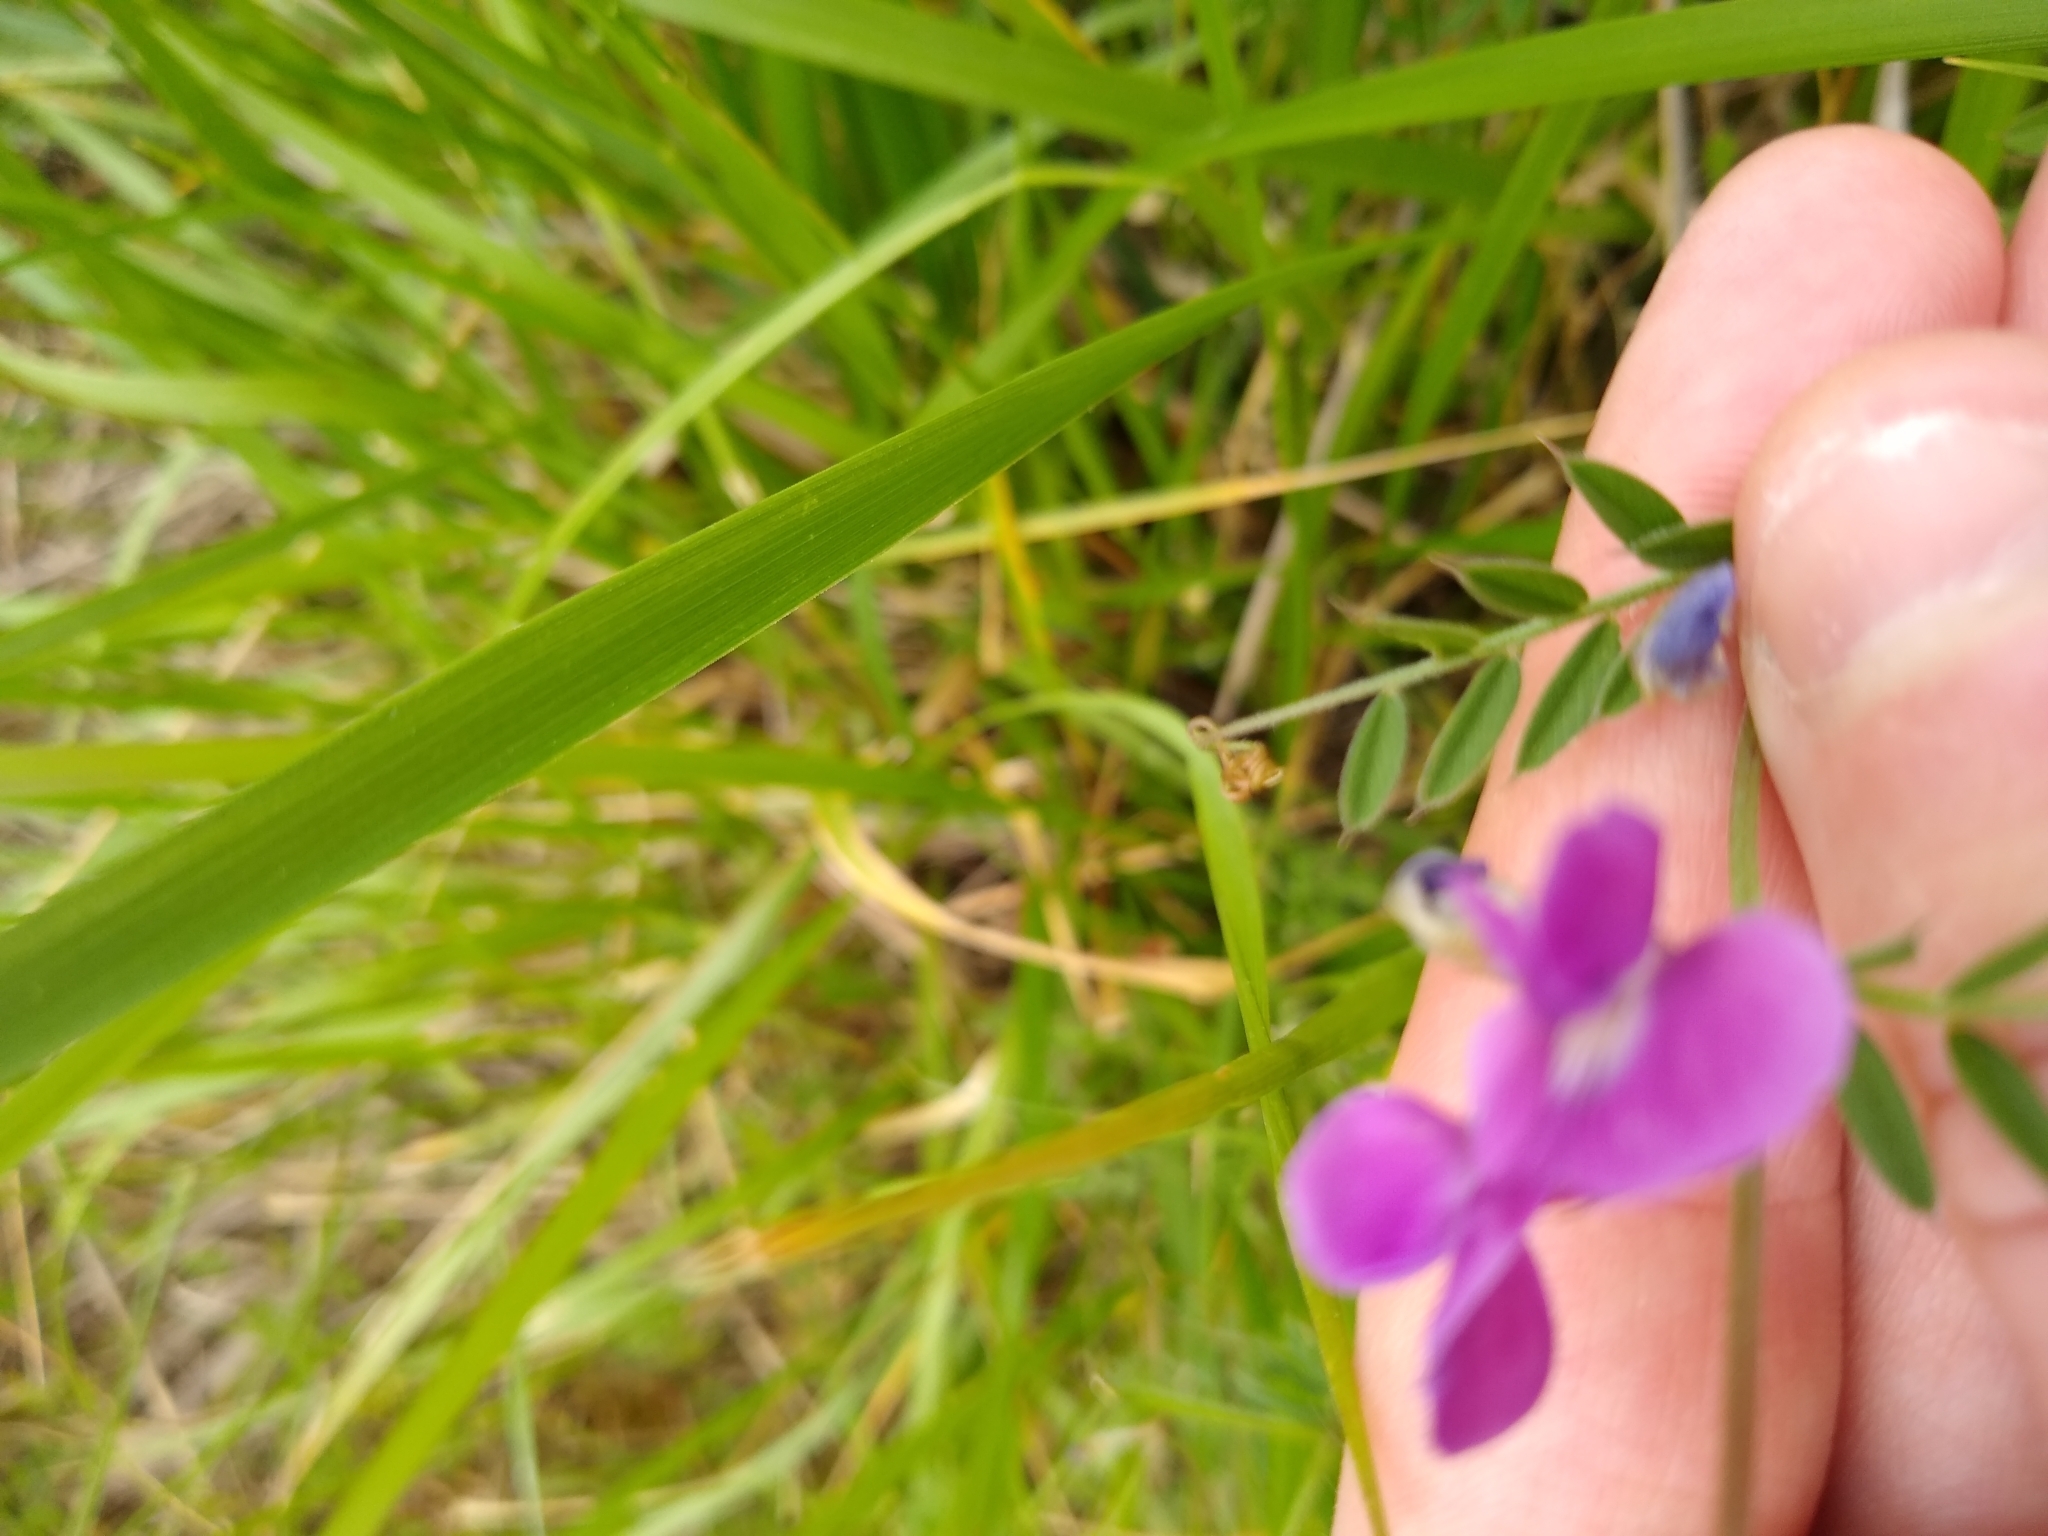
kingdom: Plantae
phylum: Tracheophyta
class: Magnoliopsida
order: Fabales
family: Fabaceae
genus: Vicia
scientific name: Vicia sativa
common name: Garden vetch
